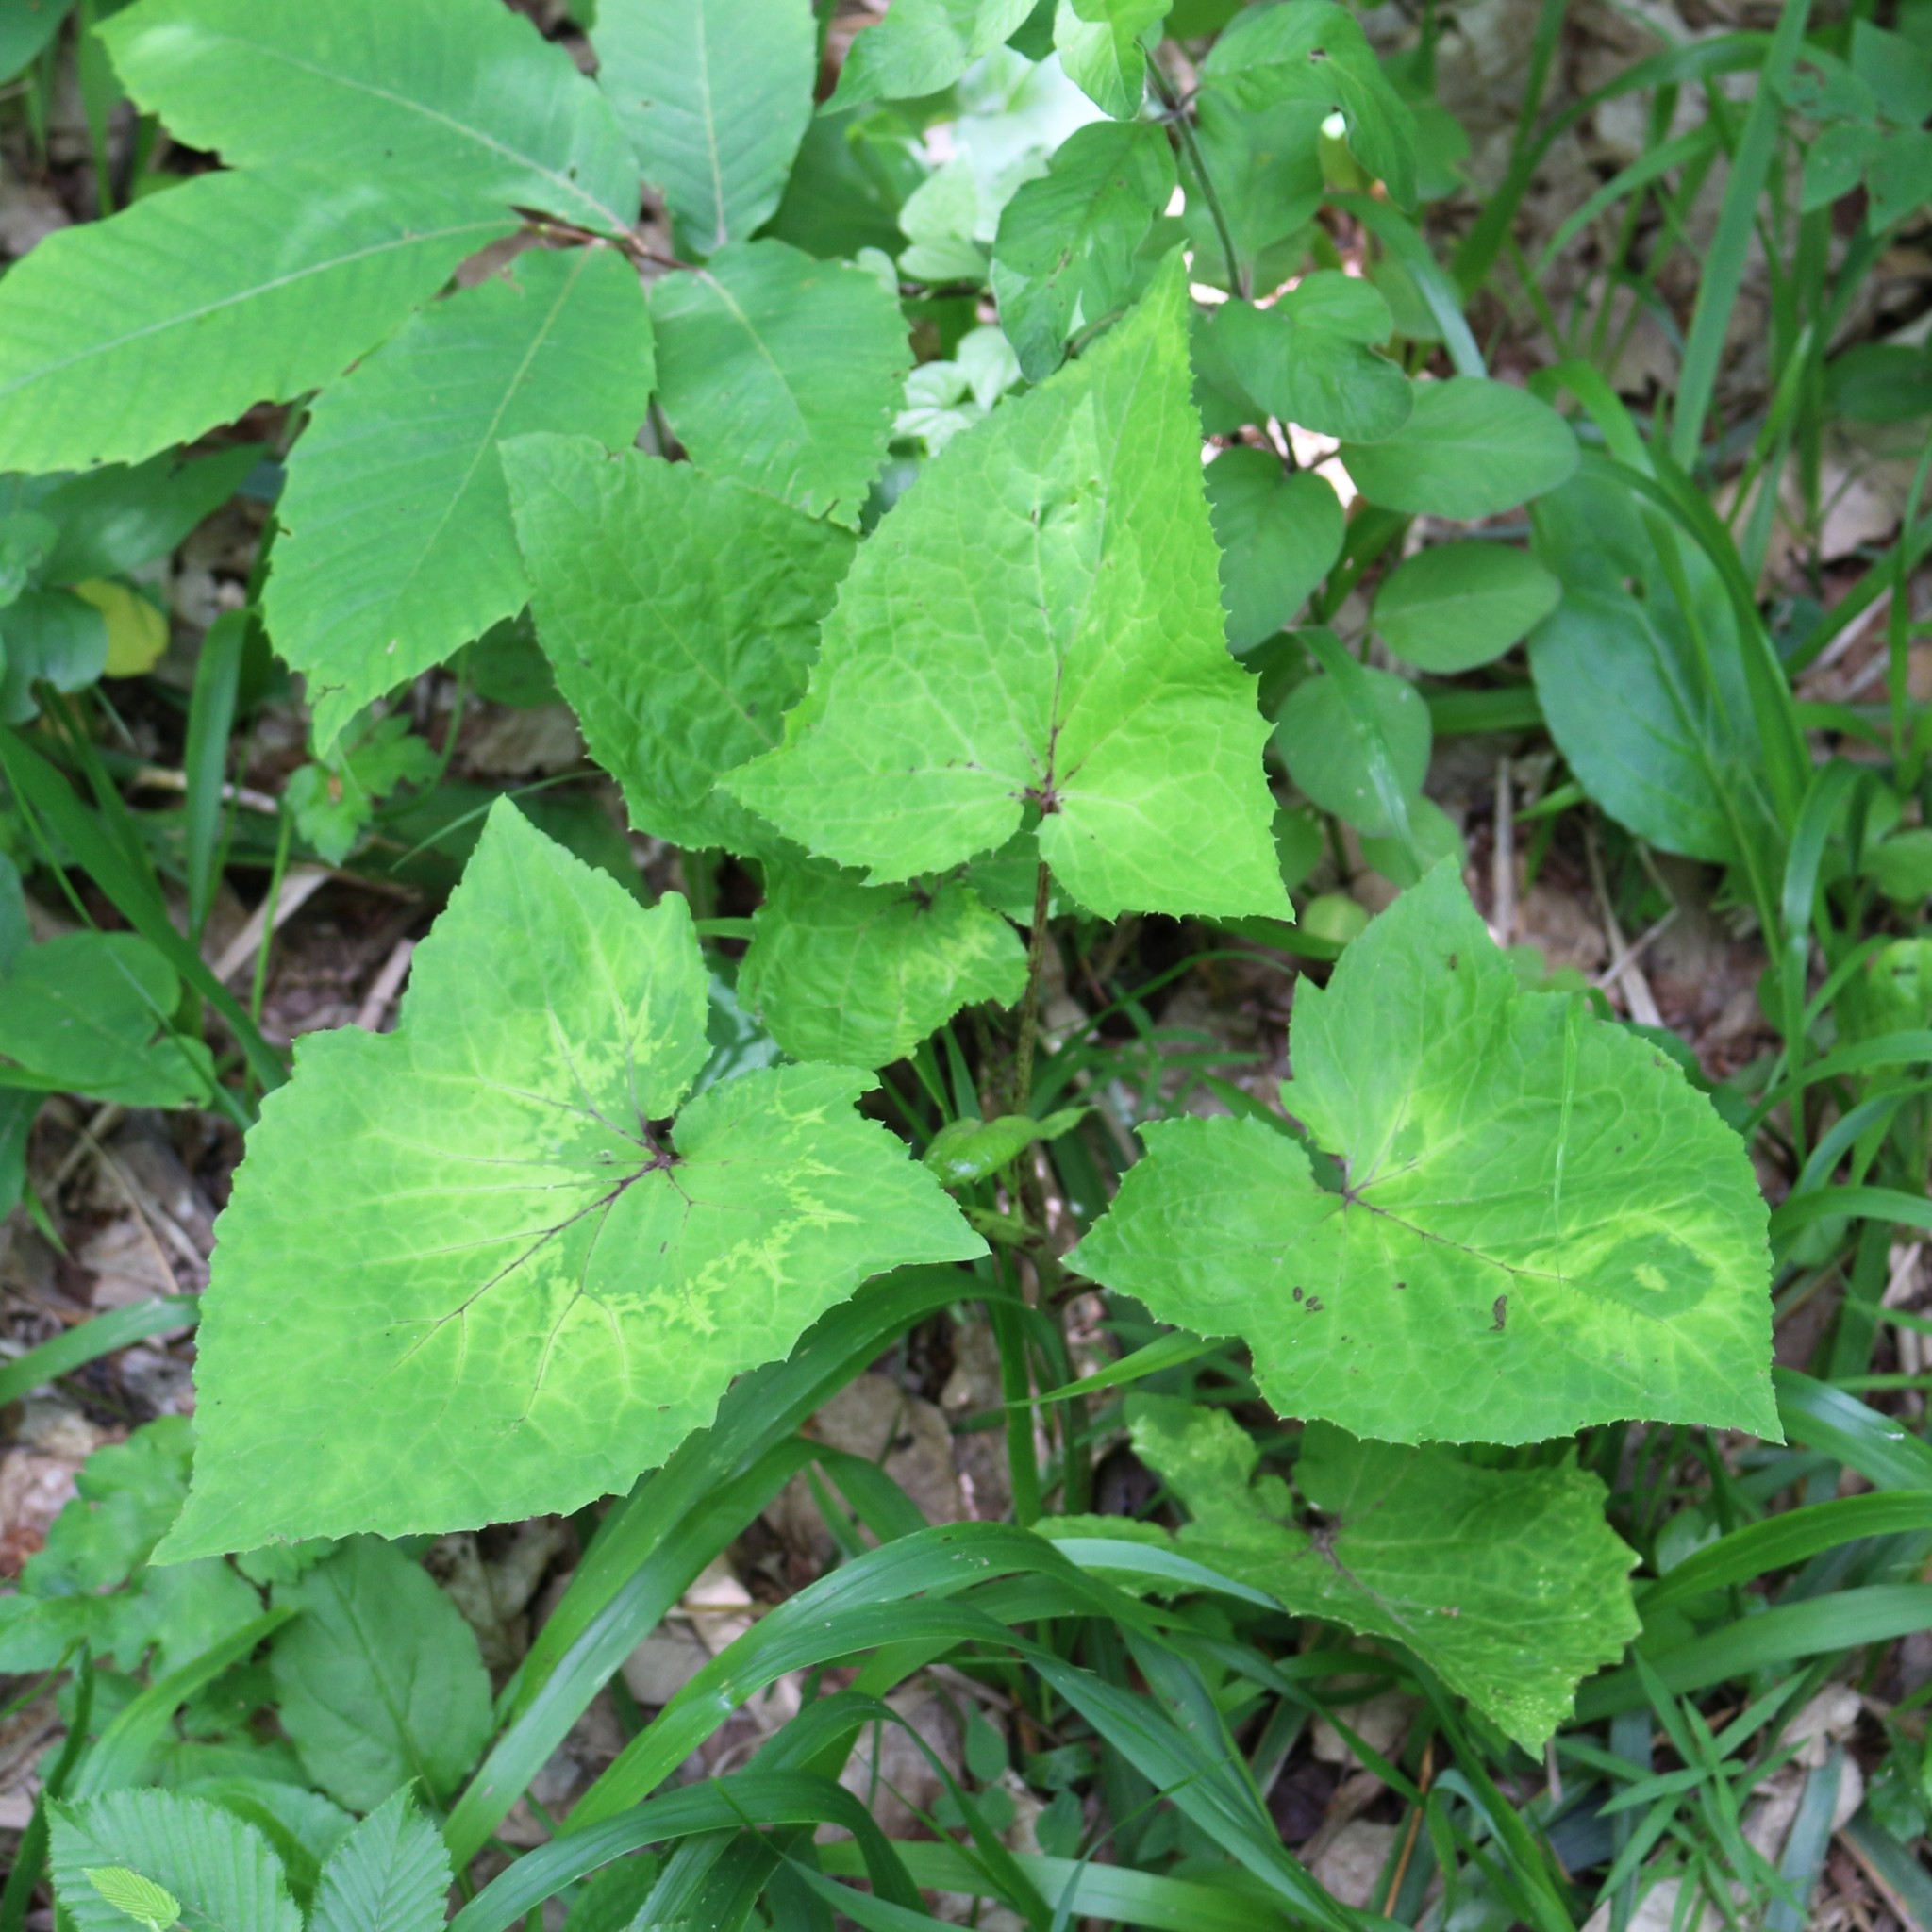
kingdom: Plantae
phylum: Tracheophyta
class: Magnoliopsida
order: Asterales
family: Asteraceae
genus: Cicerbita
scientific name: Cicerbita petiolata
